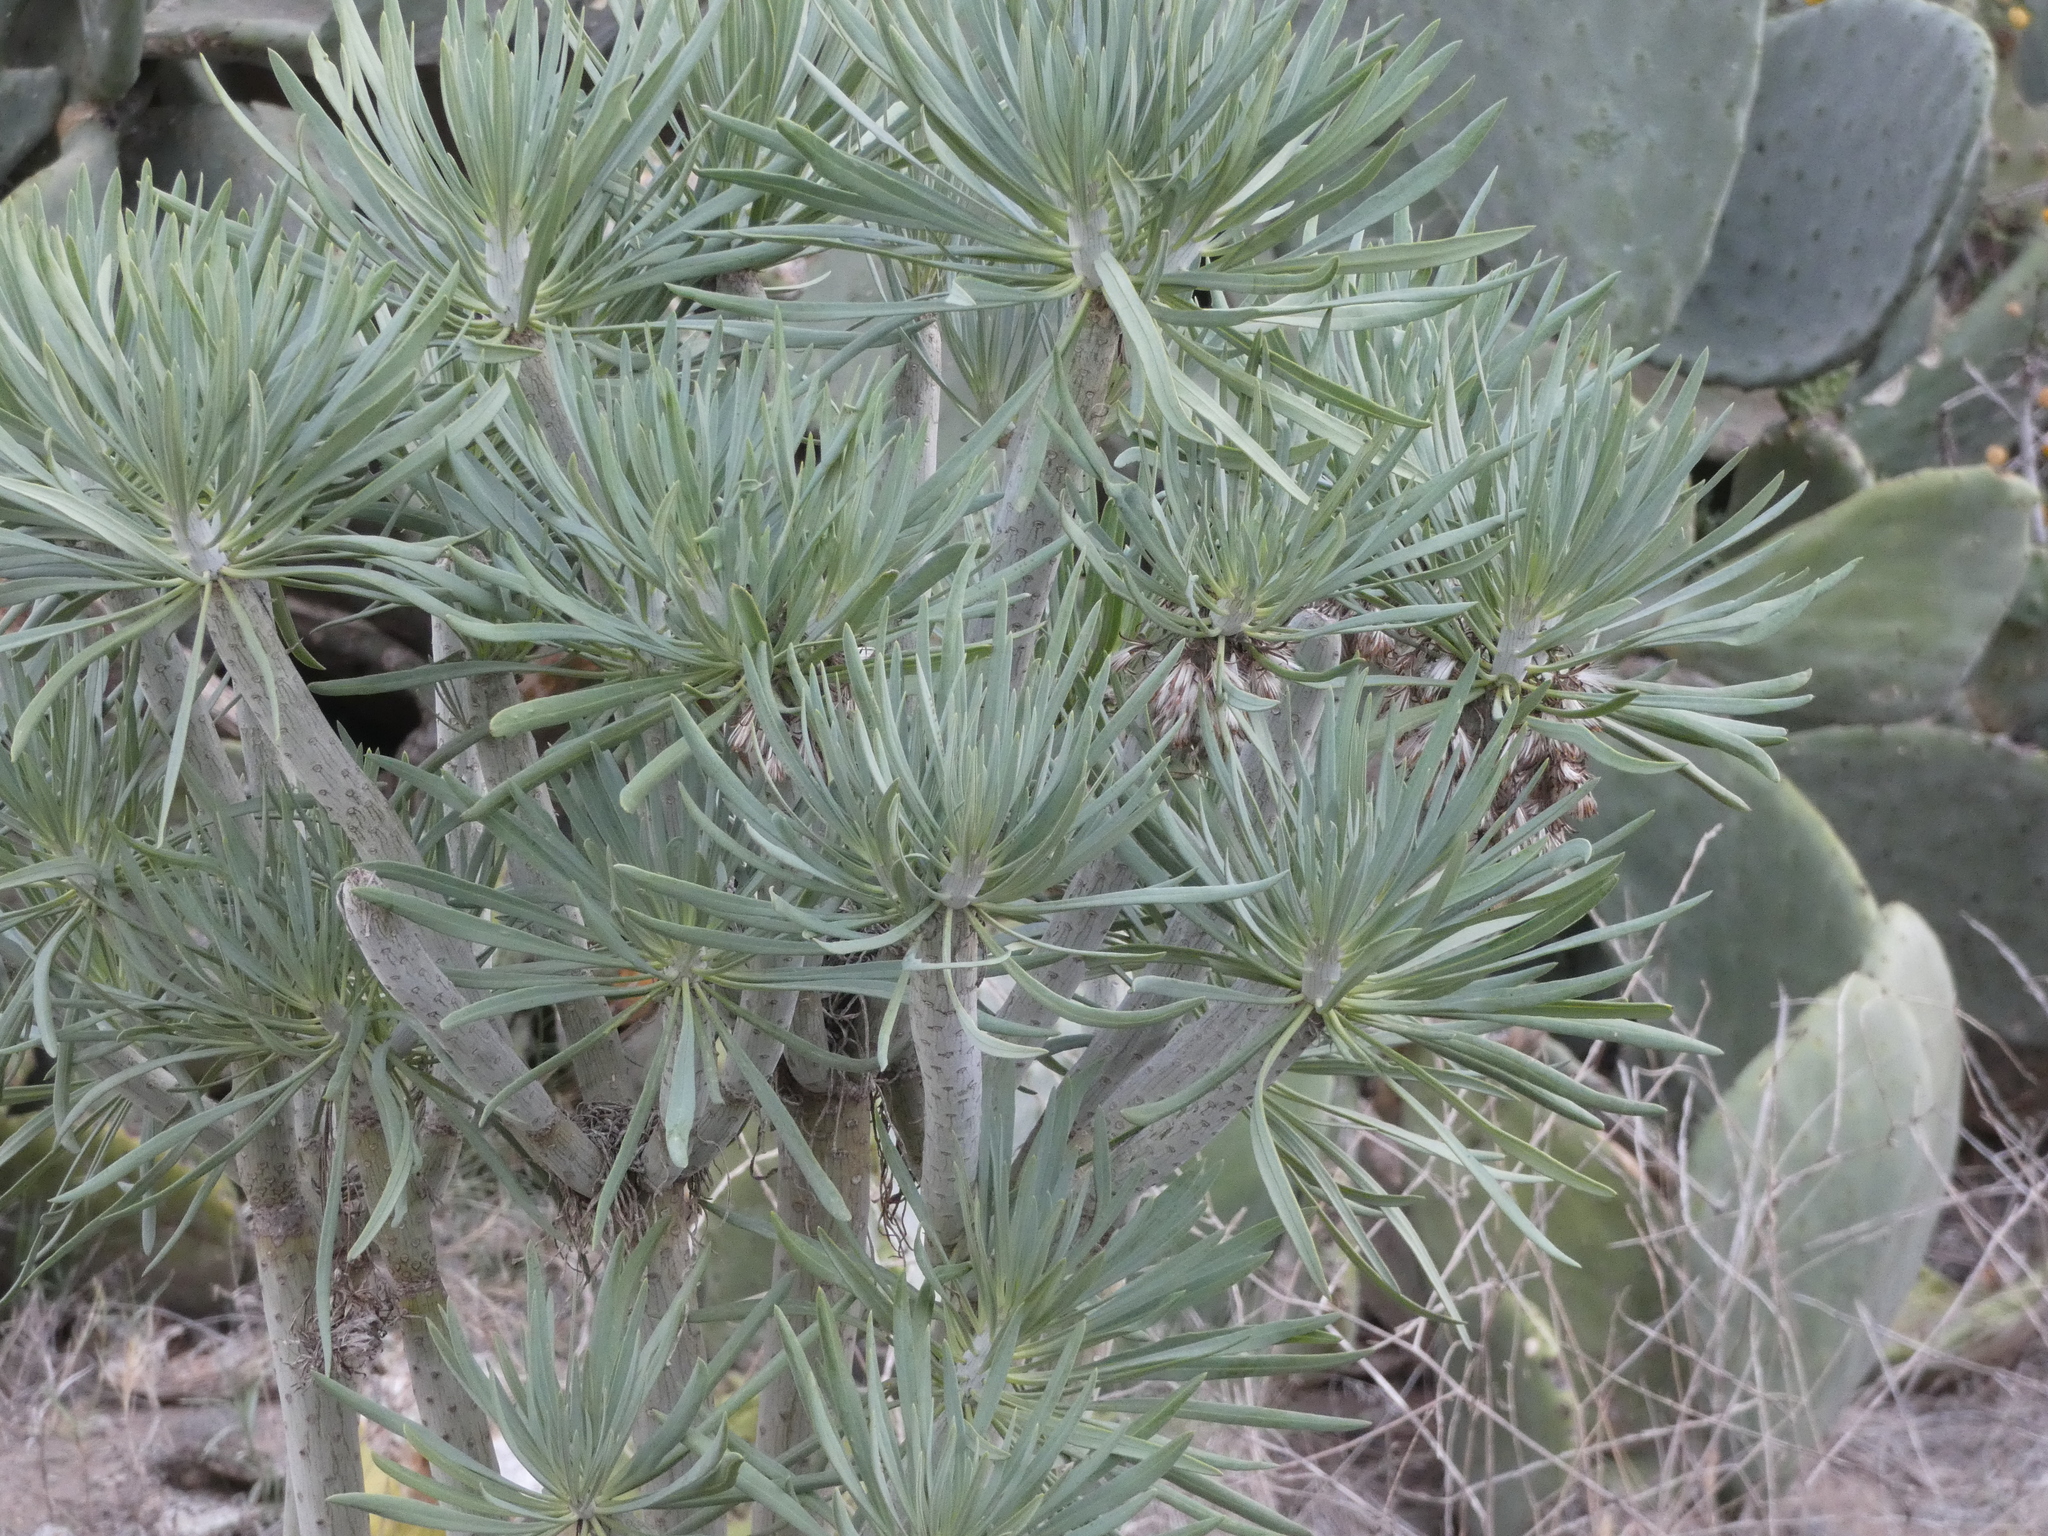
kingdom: Plantae
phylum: Tracheophyta
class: Magnoliopsida
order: Asterales
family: Asteraceae
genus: Kleinia
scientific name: Kleinia neriifolia
